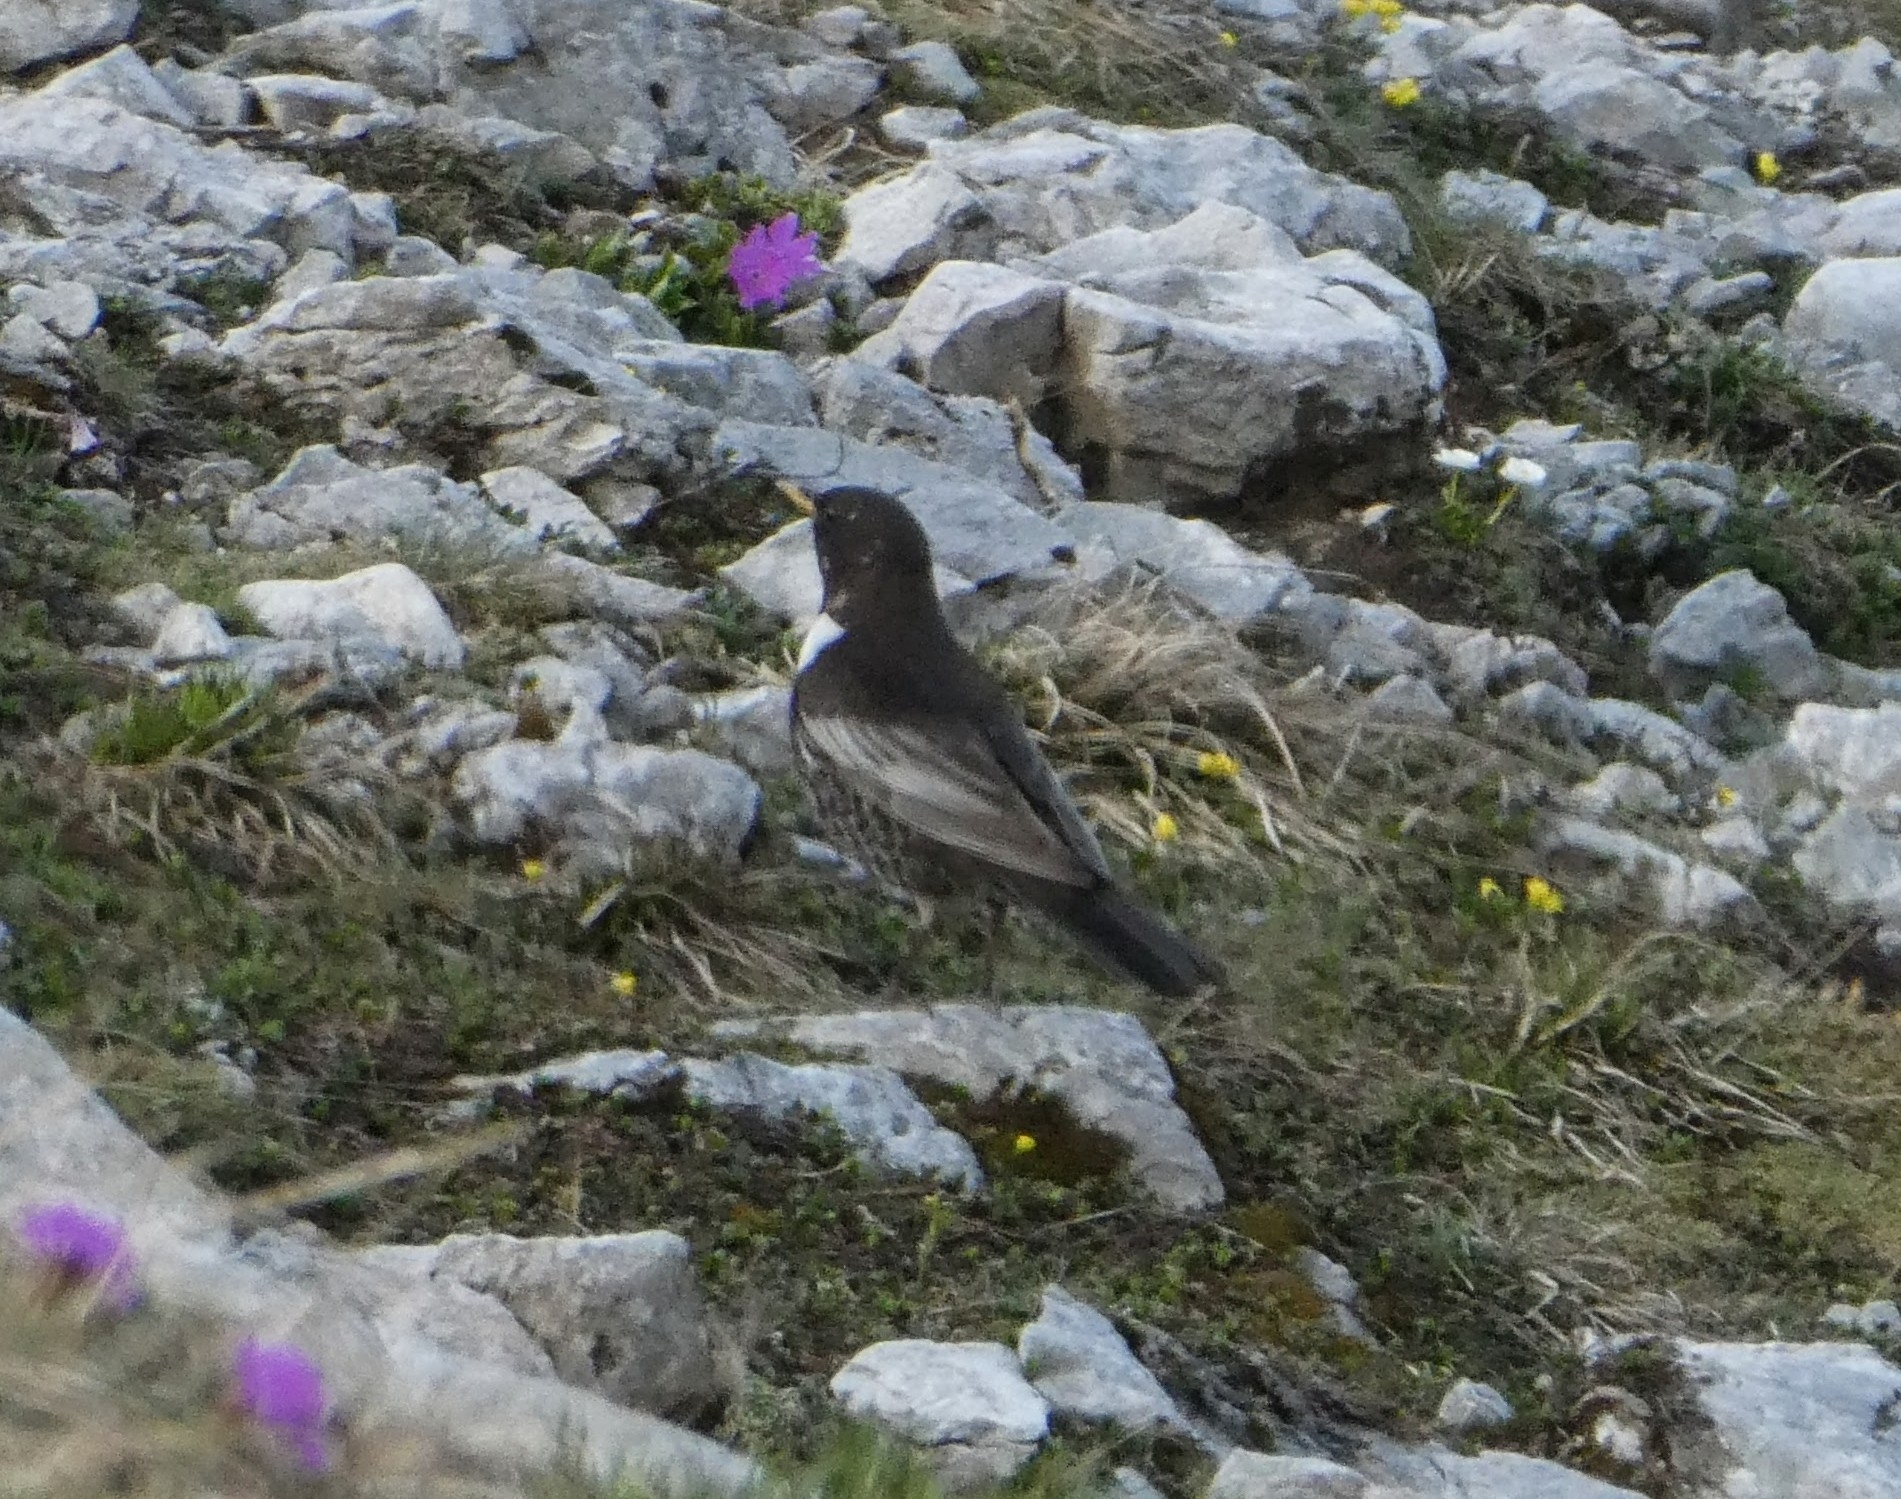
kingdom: Animalia
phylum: Chordata
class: Aves
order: Passeriformes
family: Turdidae
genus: Turdus
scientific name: Turdus torquatus
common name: Ring ouzel
